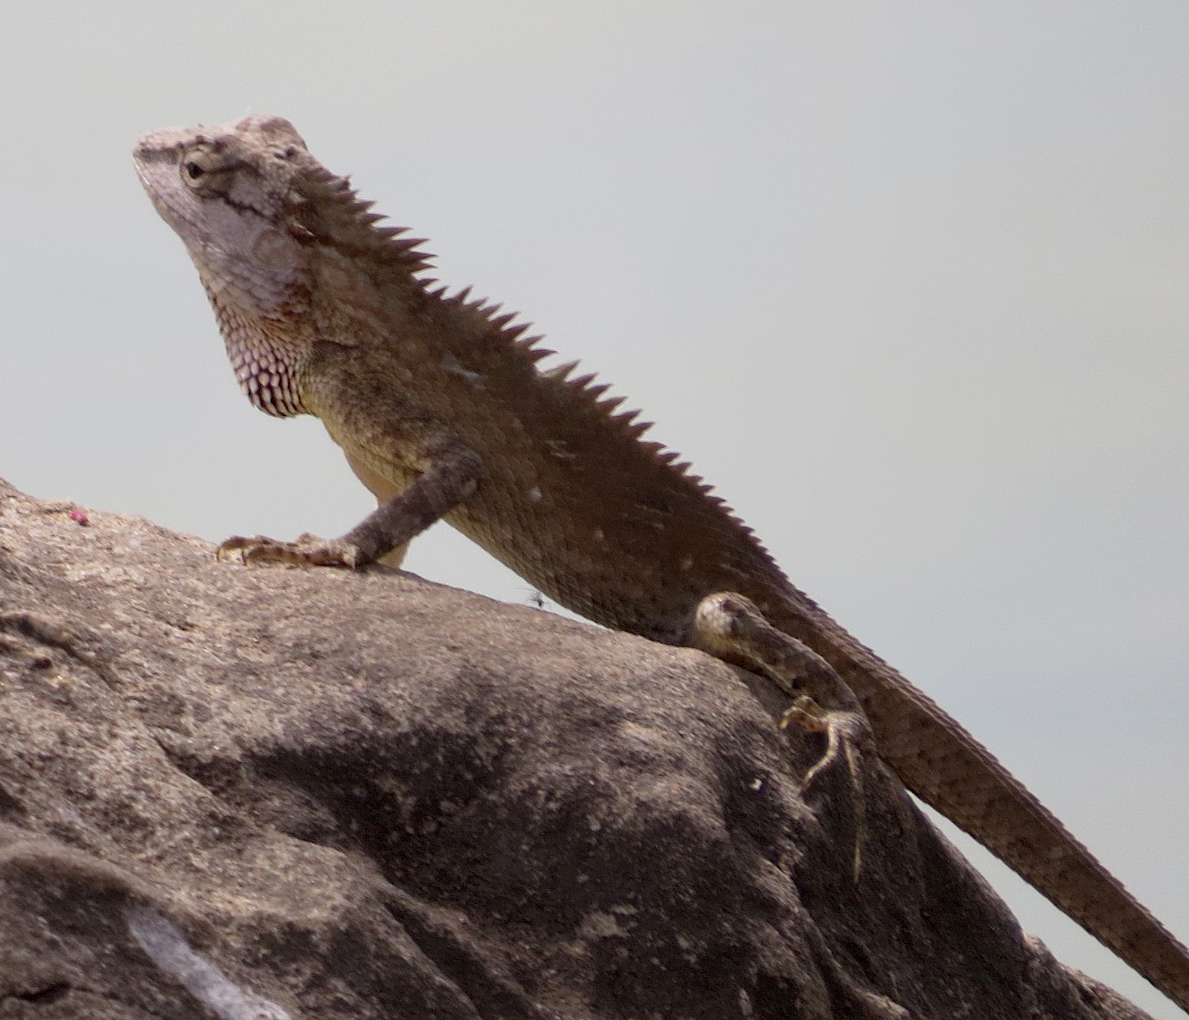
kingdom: Animalia
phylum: Chordata
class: Squamata
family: Agamidae
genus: Calotes
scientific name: Calotes versicolor
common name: Oriental garden lizard
